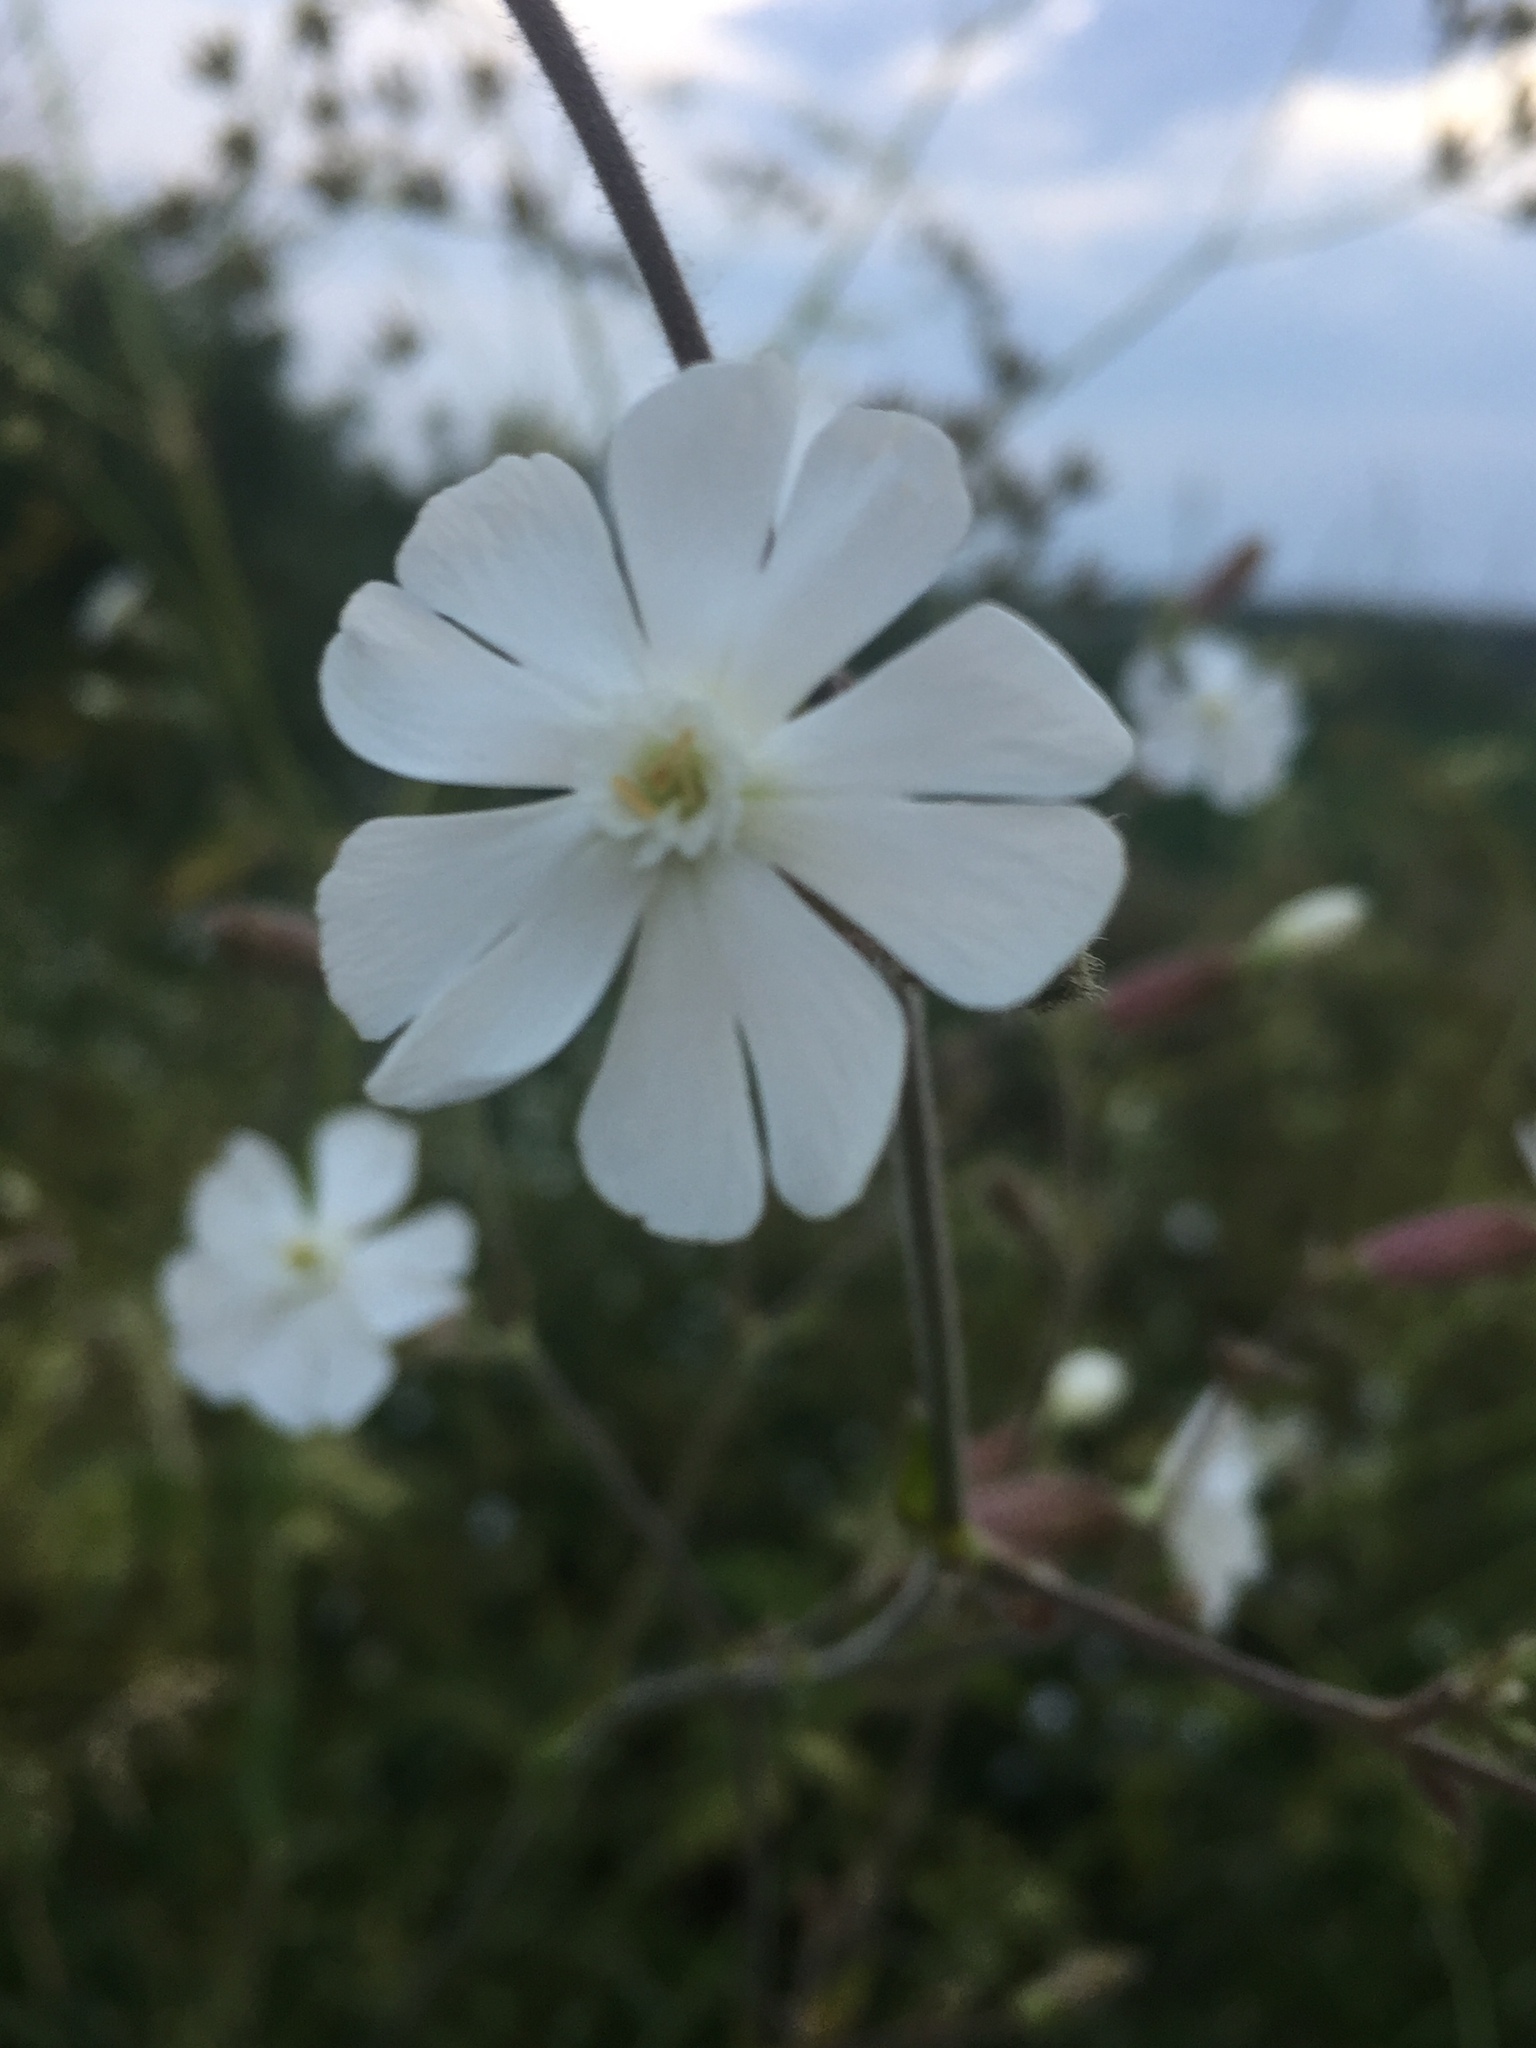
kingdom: Plantae
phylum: Tracheophyta
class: Magnoliopsida
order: Caryophyllales
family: Caryophyllaceae
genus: Silene
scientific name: Silene latifolia
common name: White campion
